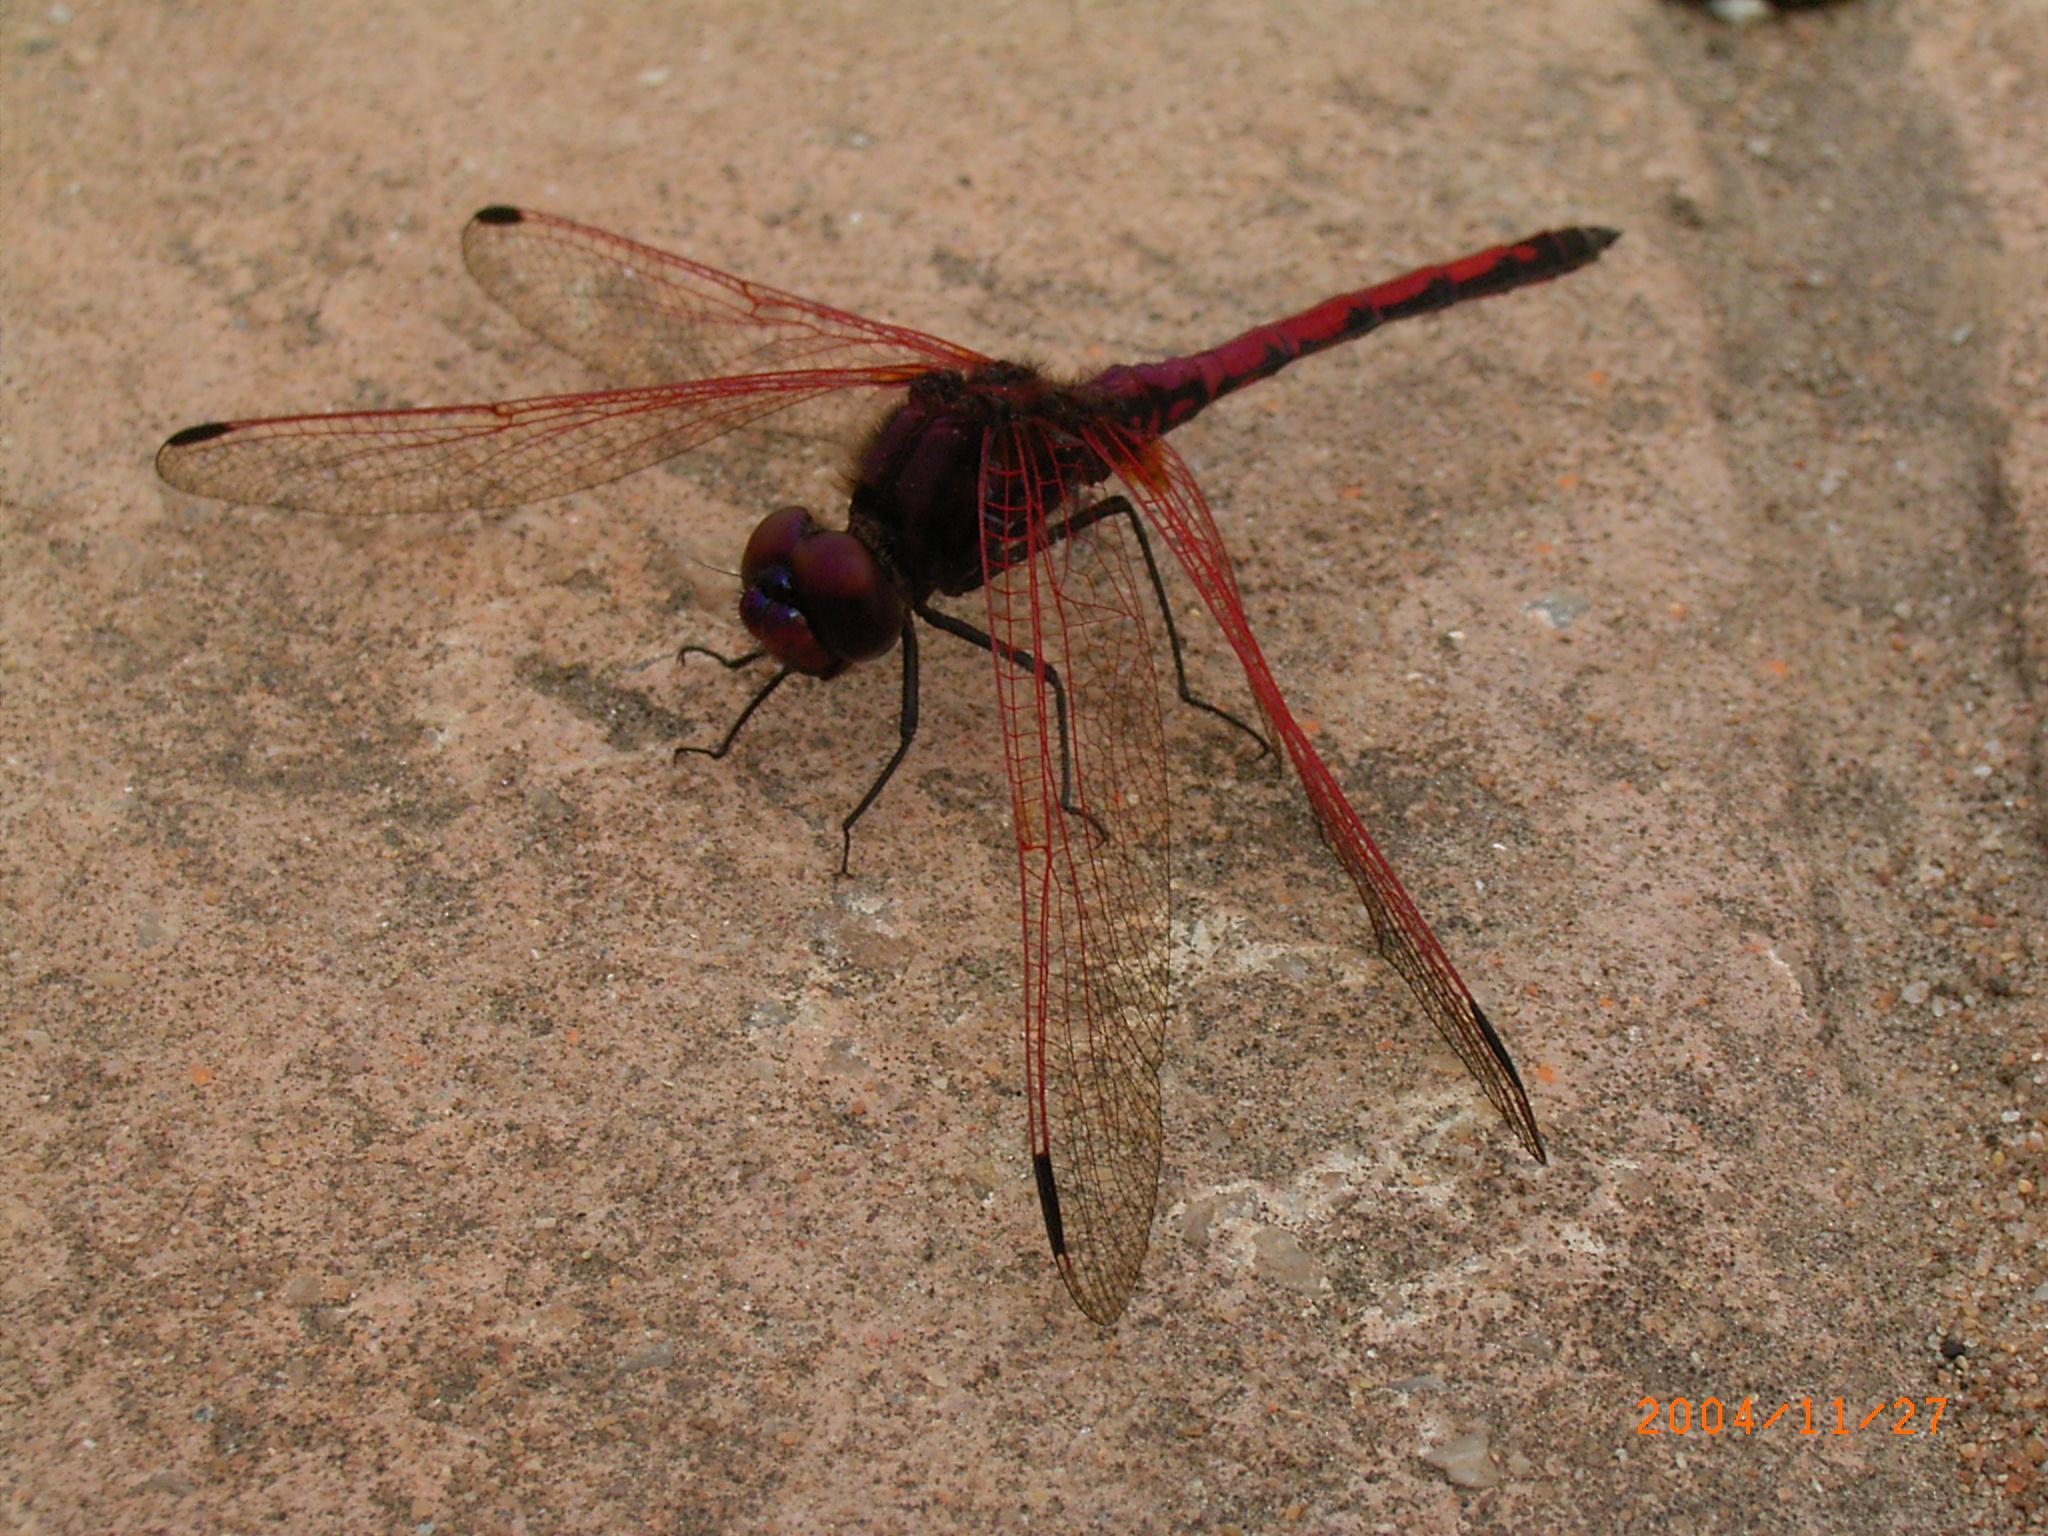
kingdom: Animalia
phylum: Arthropoda
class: Insecta
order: Odonata
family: Libellulidae
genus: Trithemis
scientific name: Trithemis arteriosa
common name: Red-veined dropwing
